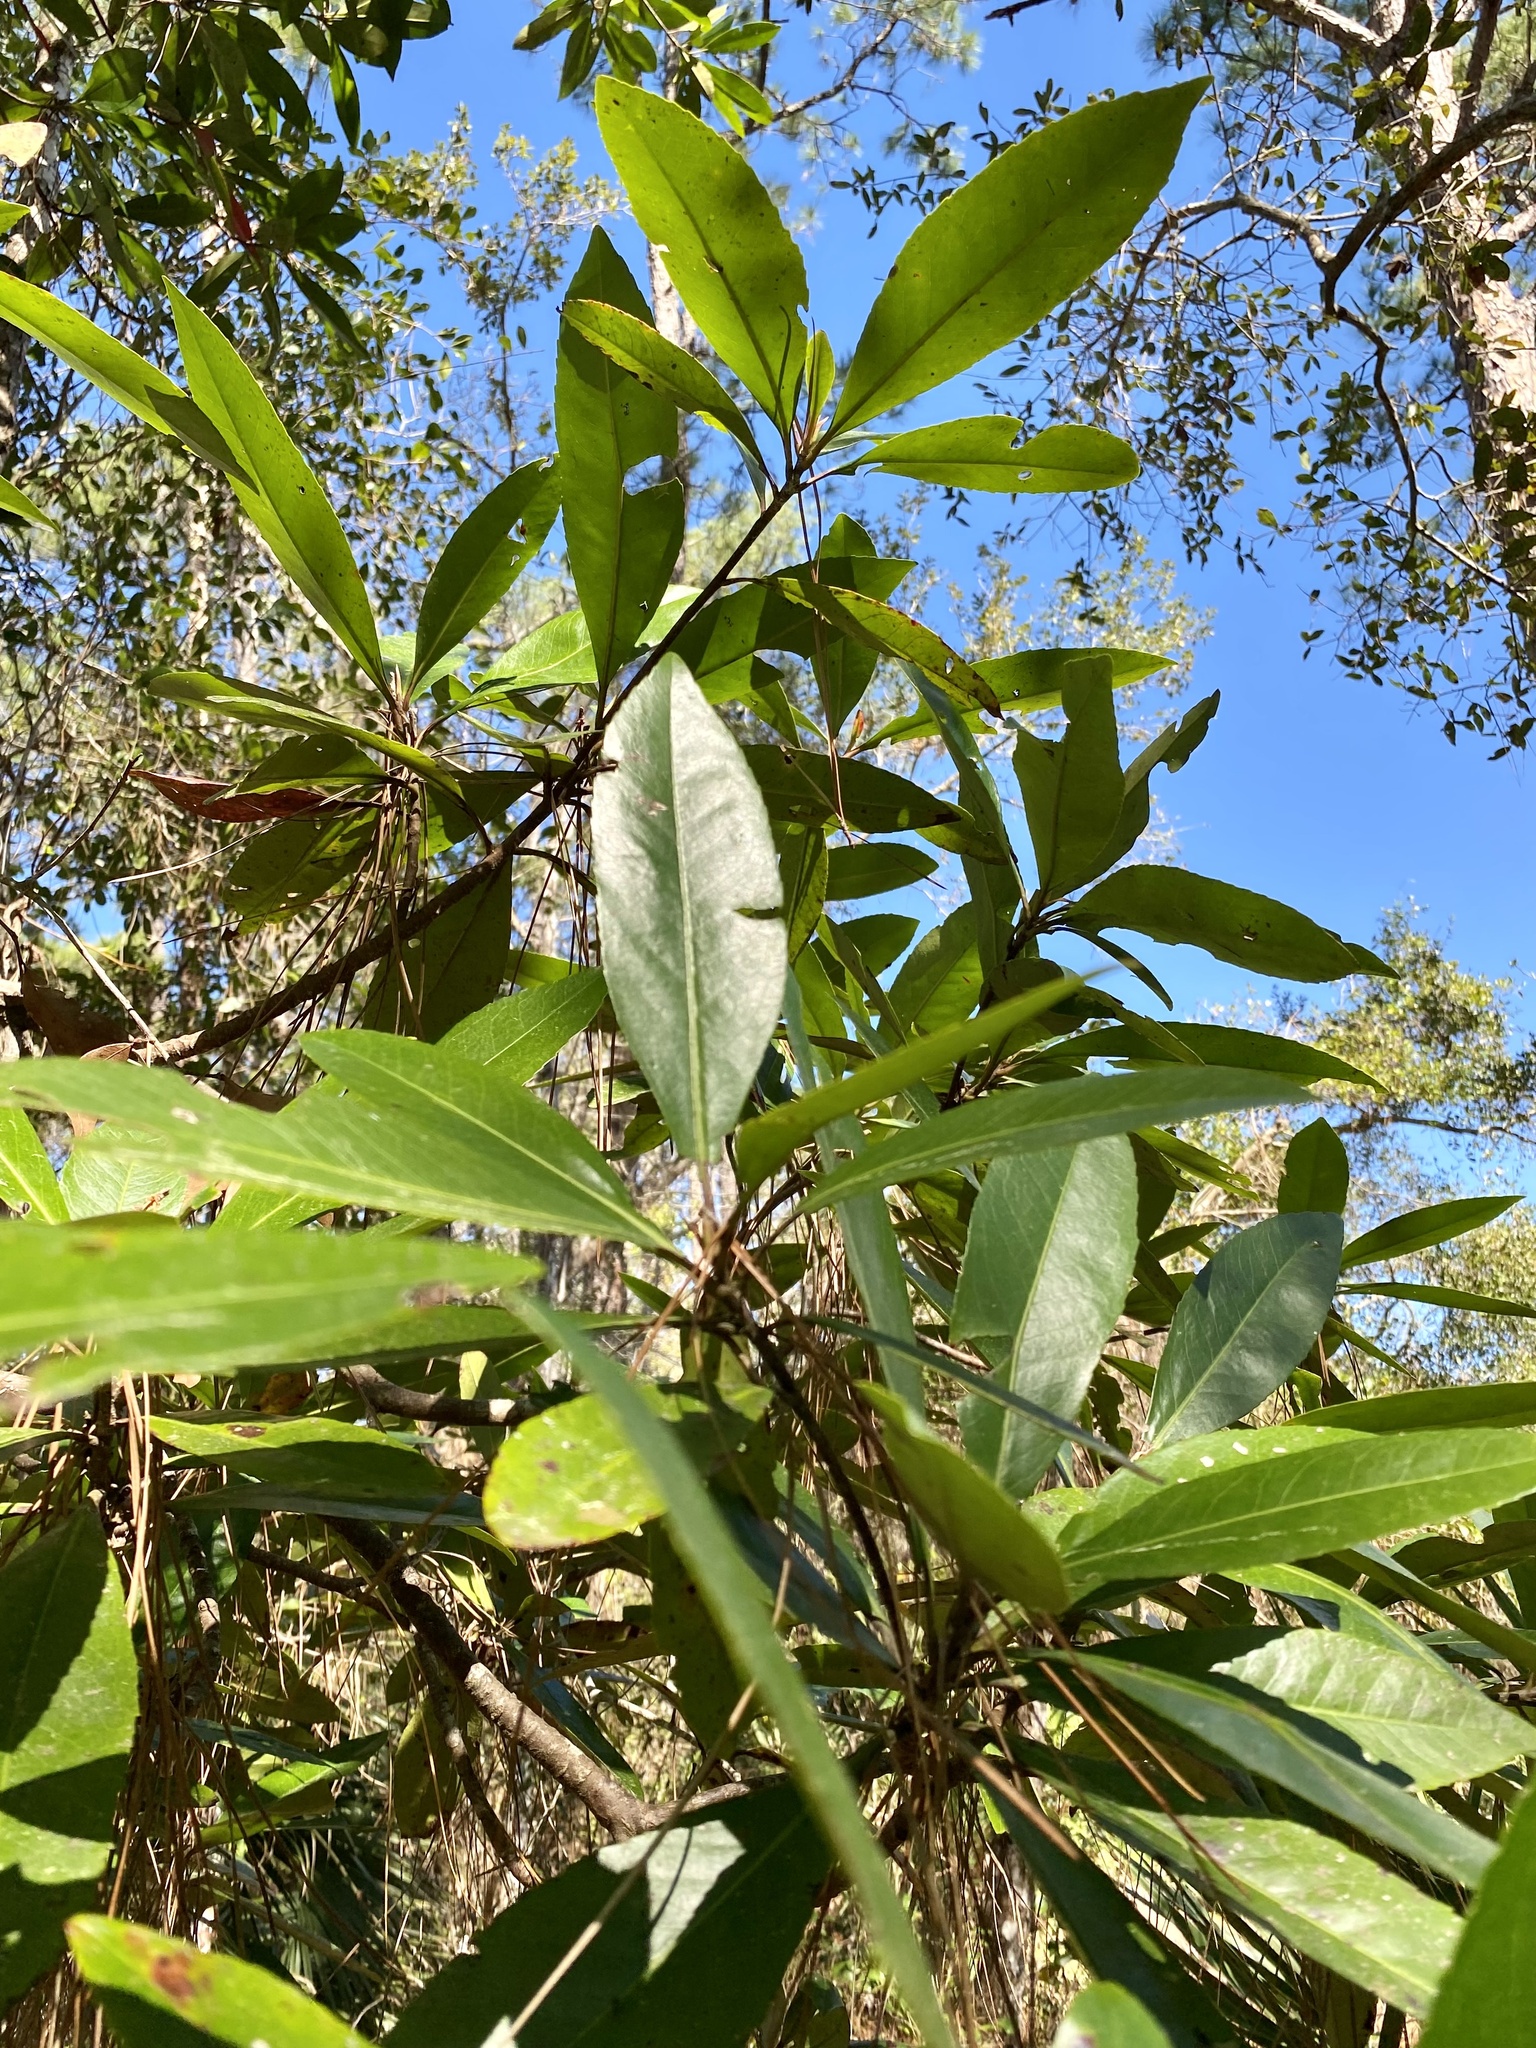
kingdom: Plantae
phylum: Tracheophyta
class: Magnoliopsida
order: Ericales
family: Theaceae
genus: Gordonia
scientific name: Gordonia lasianthus
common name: Loblolly bay
